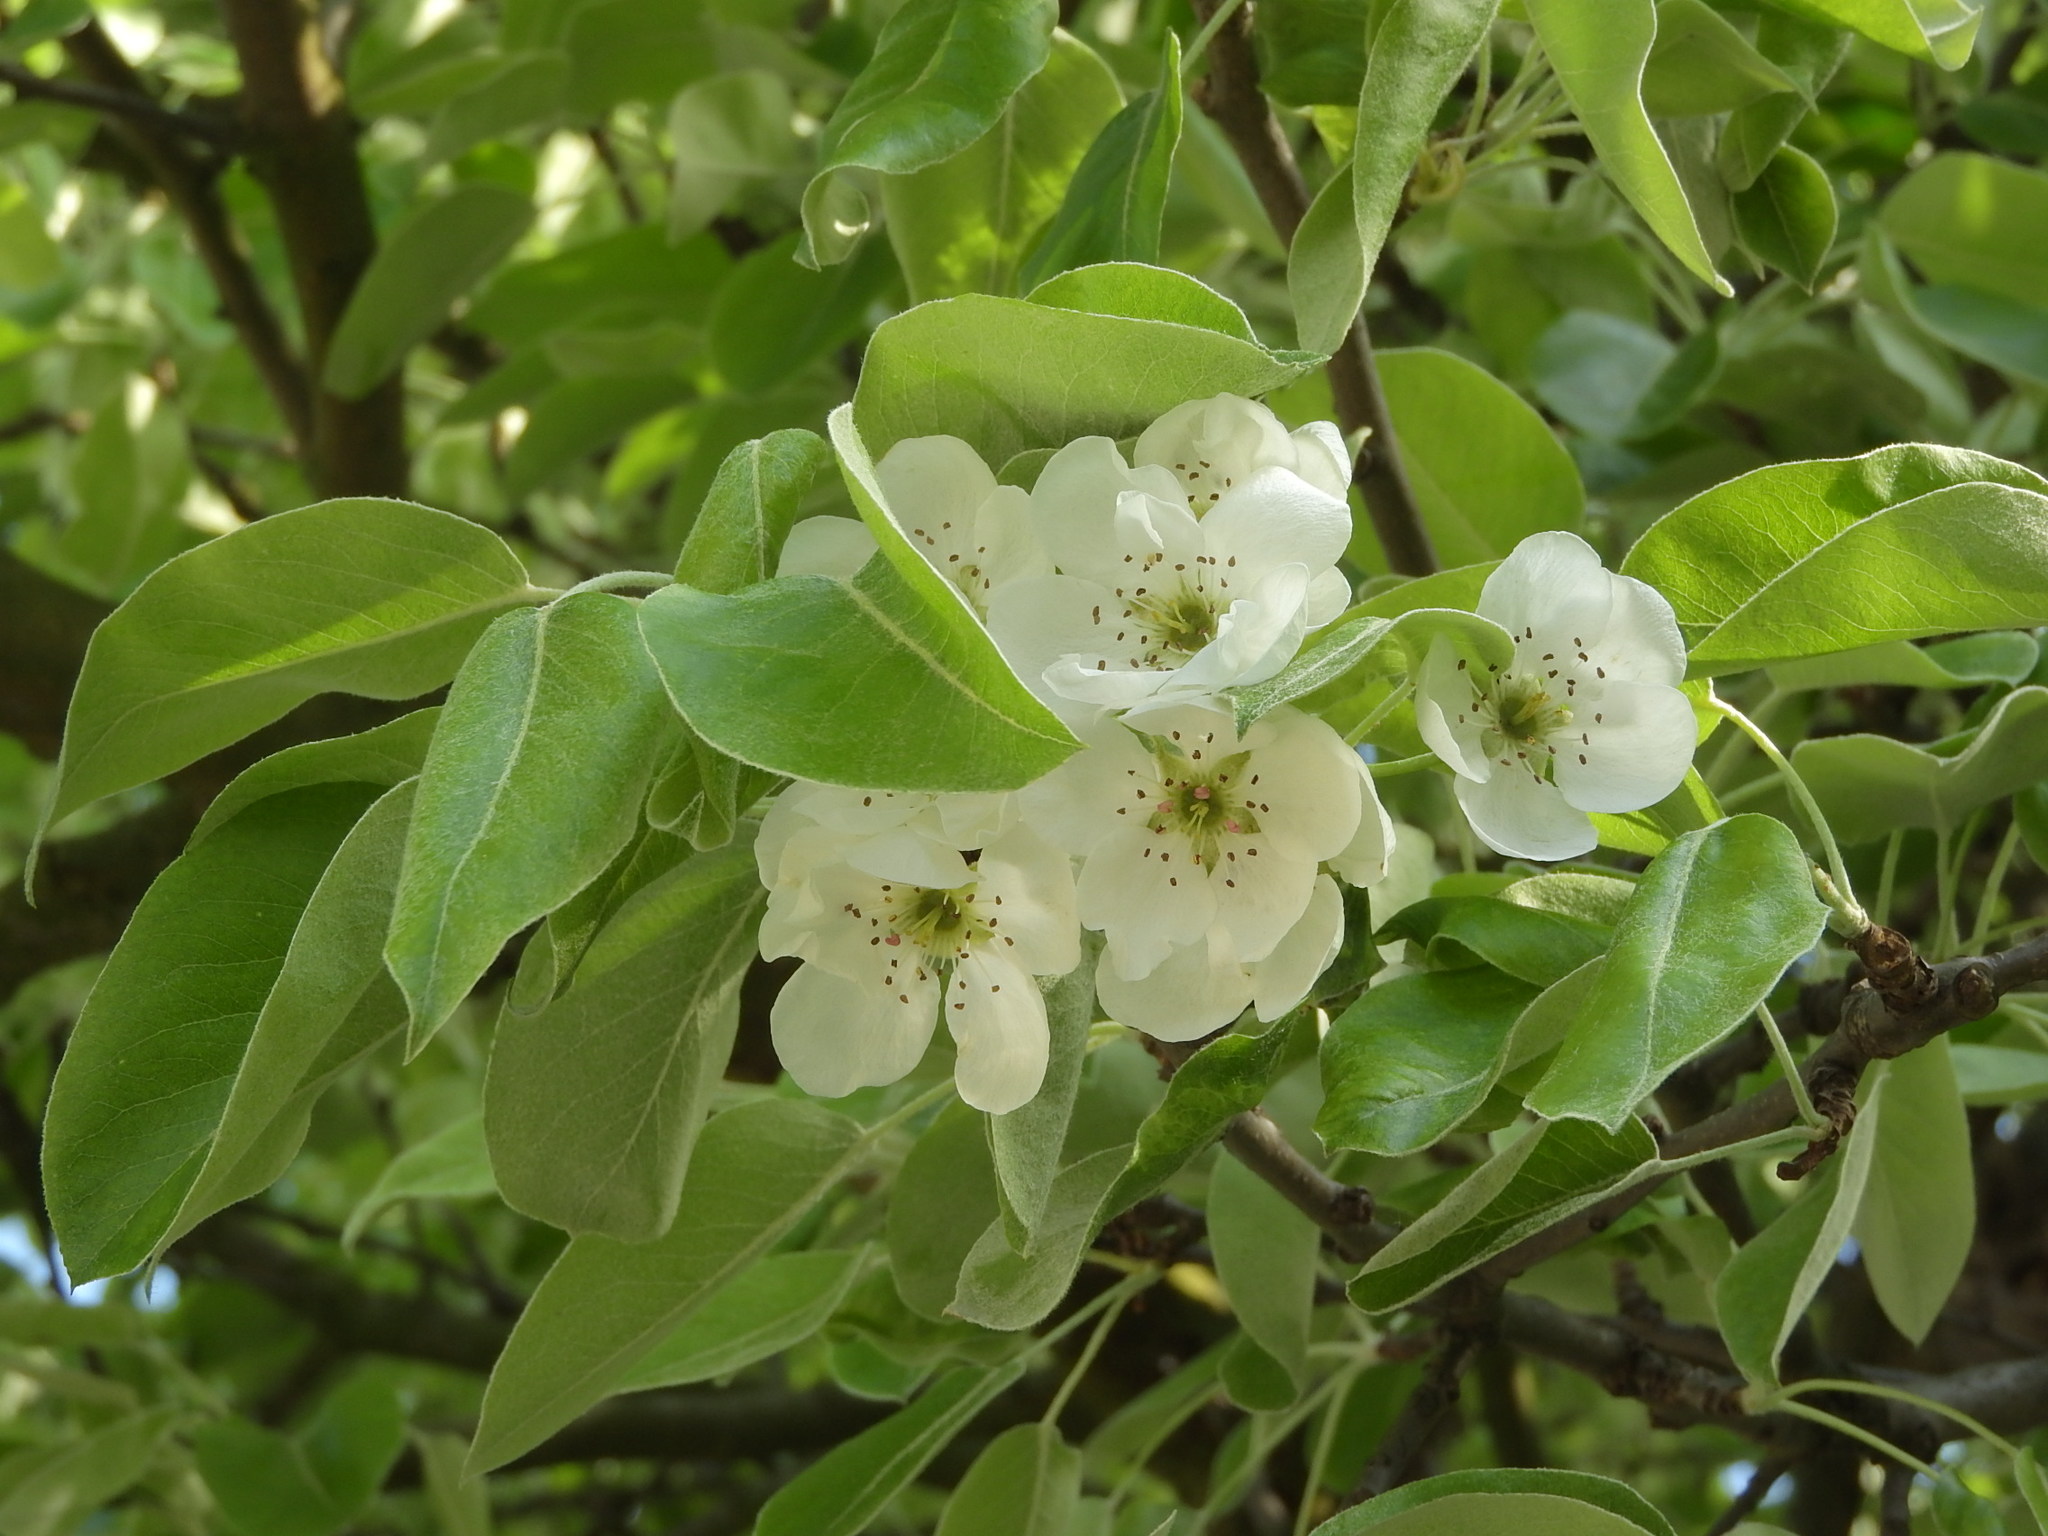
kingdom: Plantae
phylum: Tracheophyta
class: Magnoliopsida
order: Rosales
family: Rosaceae
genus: Pyrus
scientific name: Pyrus communis
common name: Pear
